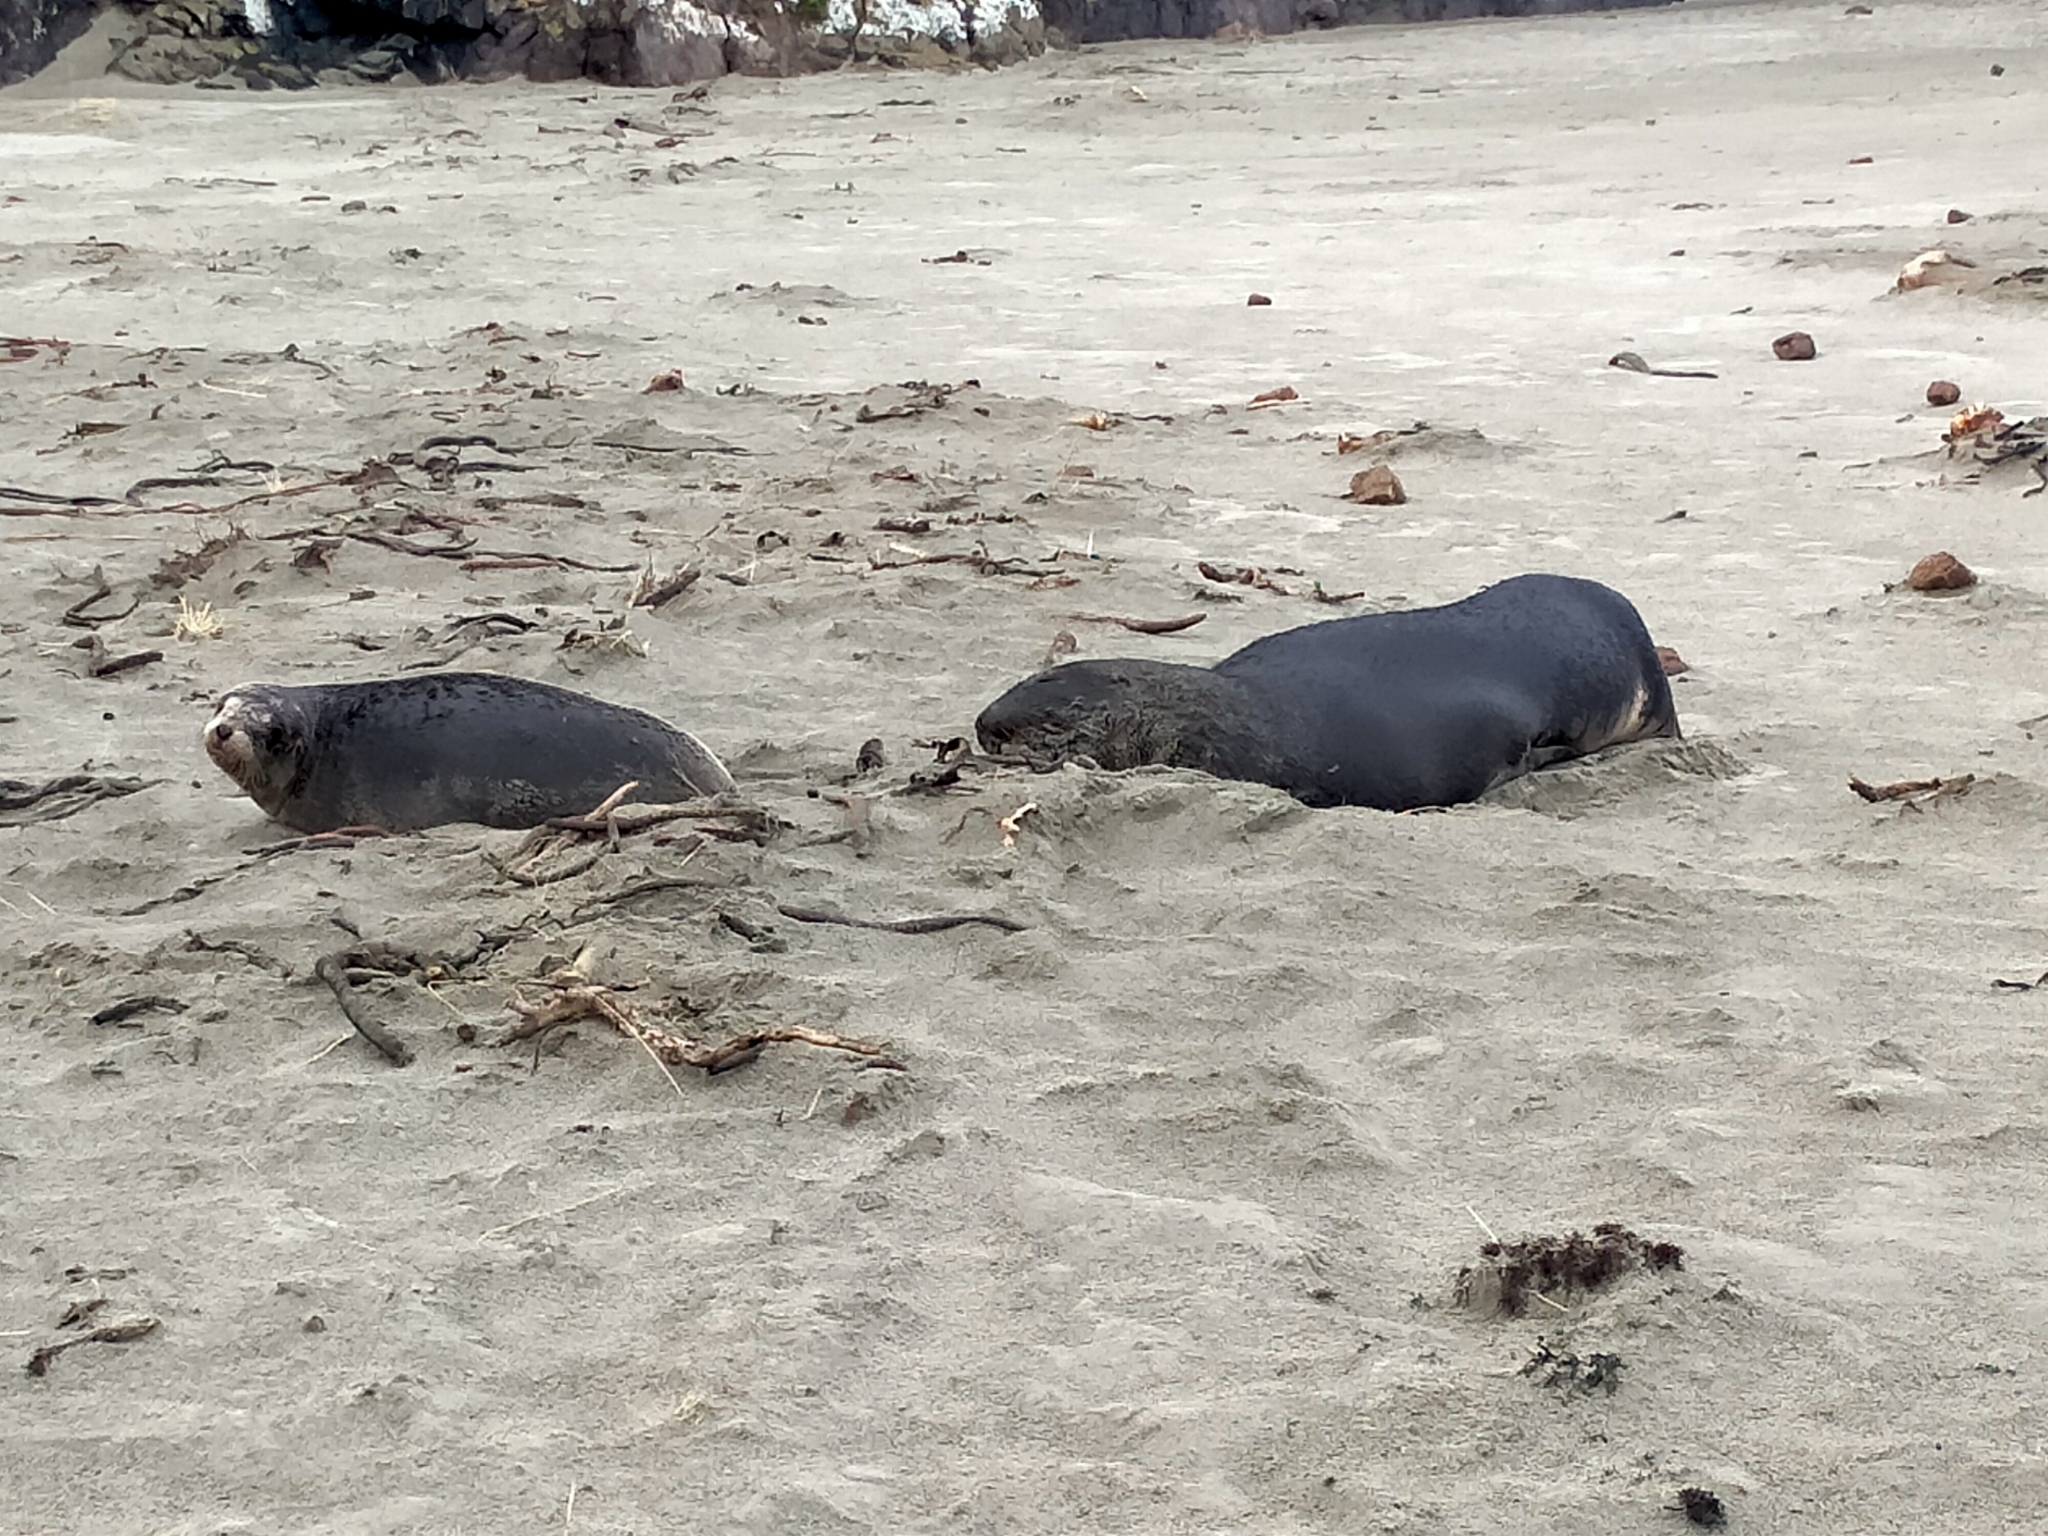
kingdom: Animalia
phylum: Chordata
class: Mammalia
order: Carnivora
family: Otariidae
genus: Phocarctos
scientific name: Phocarctos hookeri
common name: New zealand sea lion
